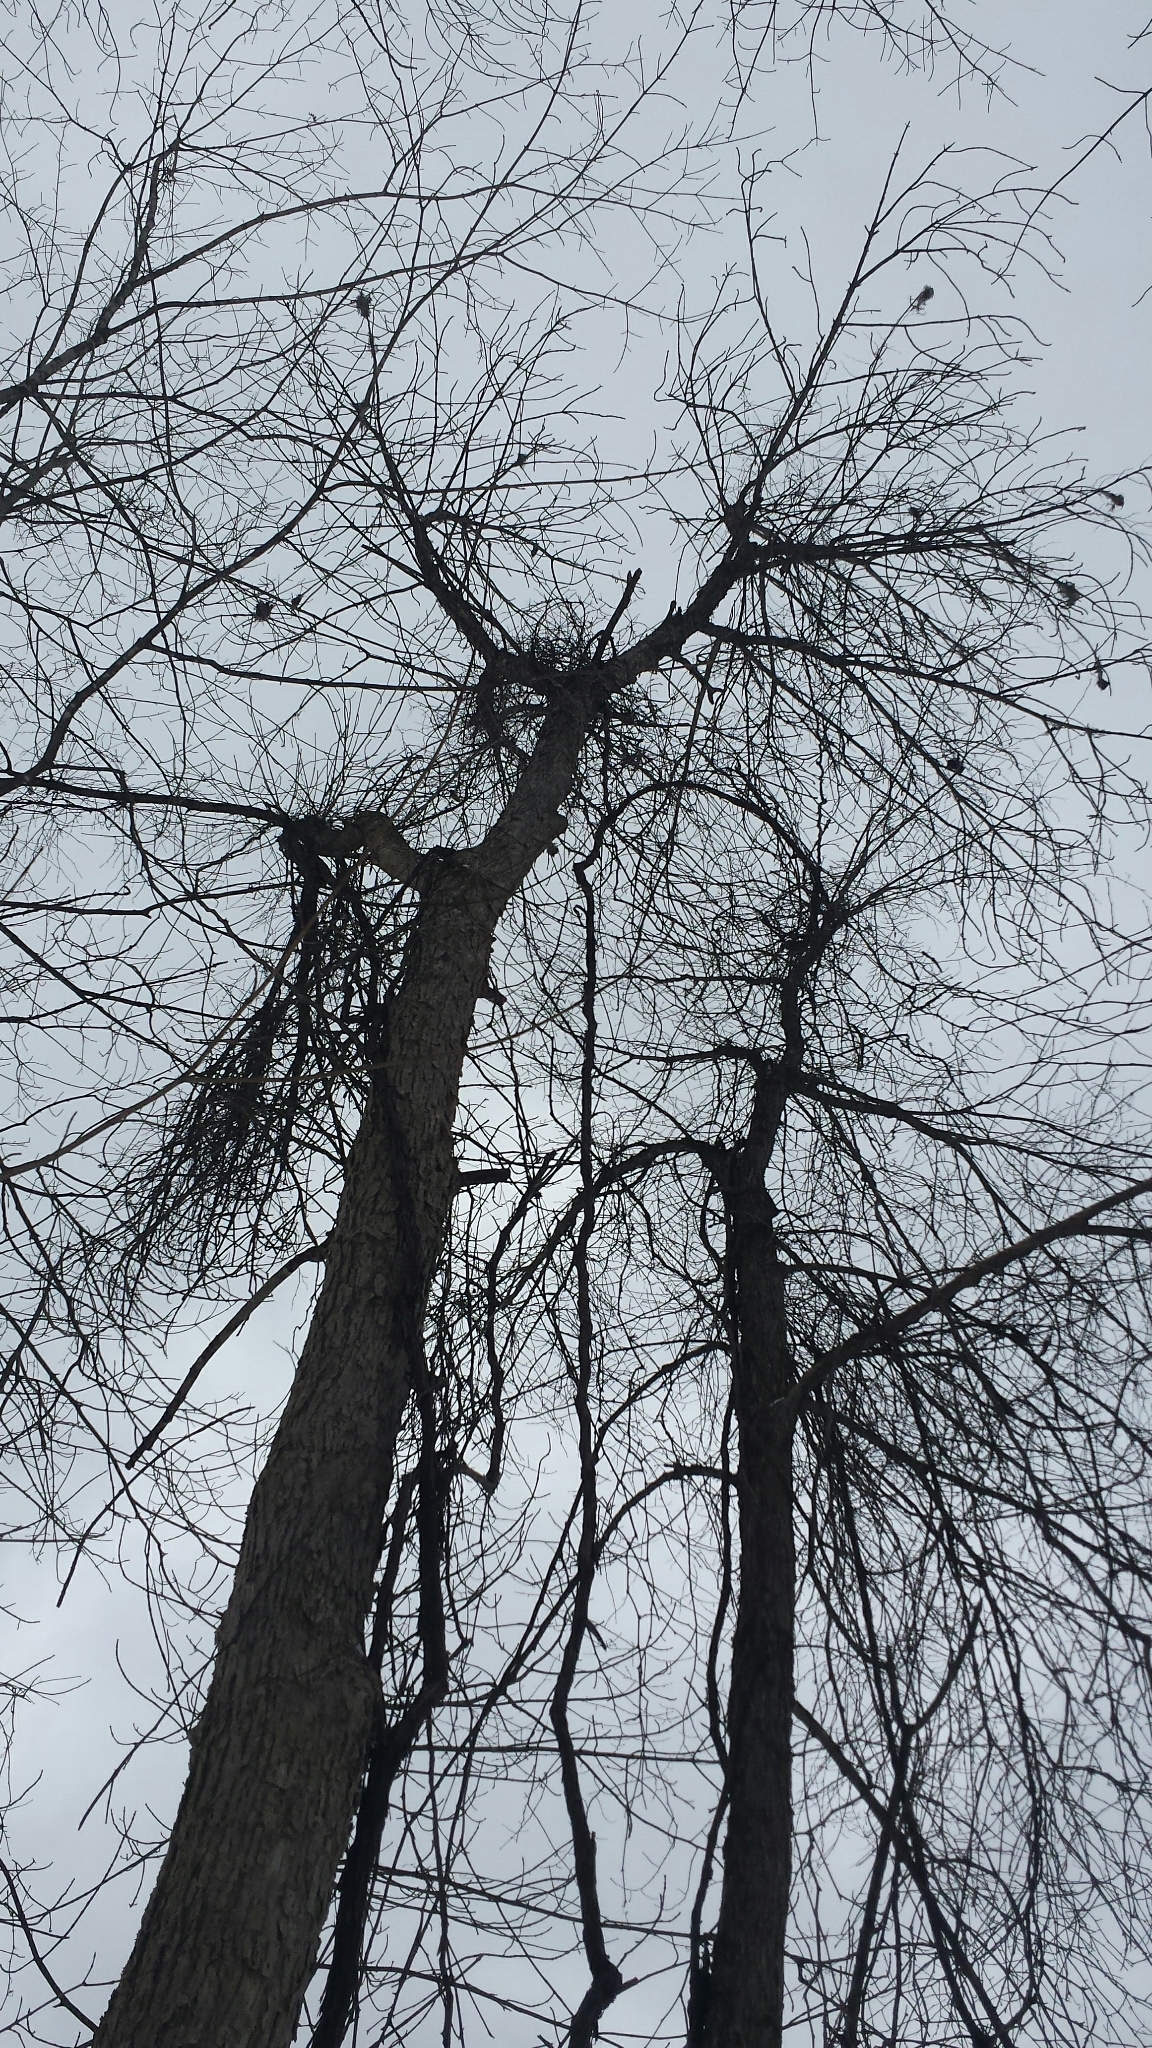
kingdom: Plantae
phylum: Tracheophyta
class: Magnoliopsida
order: Lamiales
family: Oleaceae
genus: Fraxinus
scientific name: Fraxinus nigra
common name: Black ash
